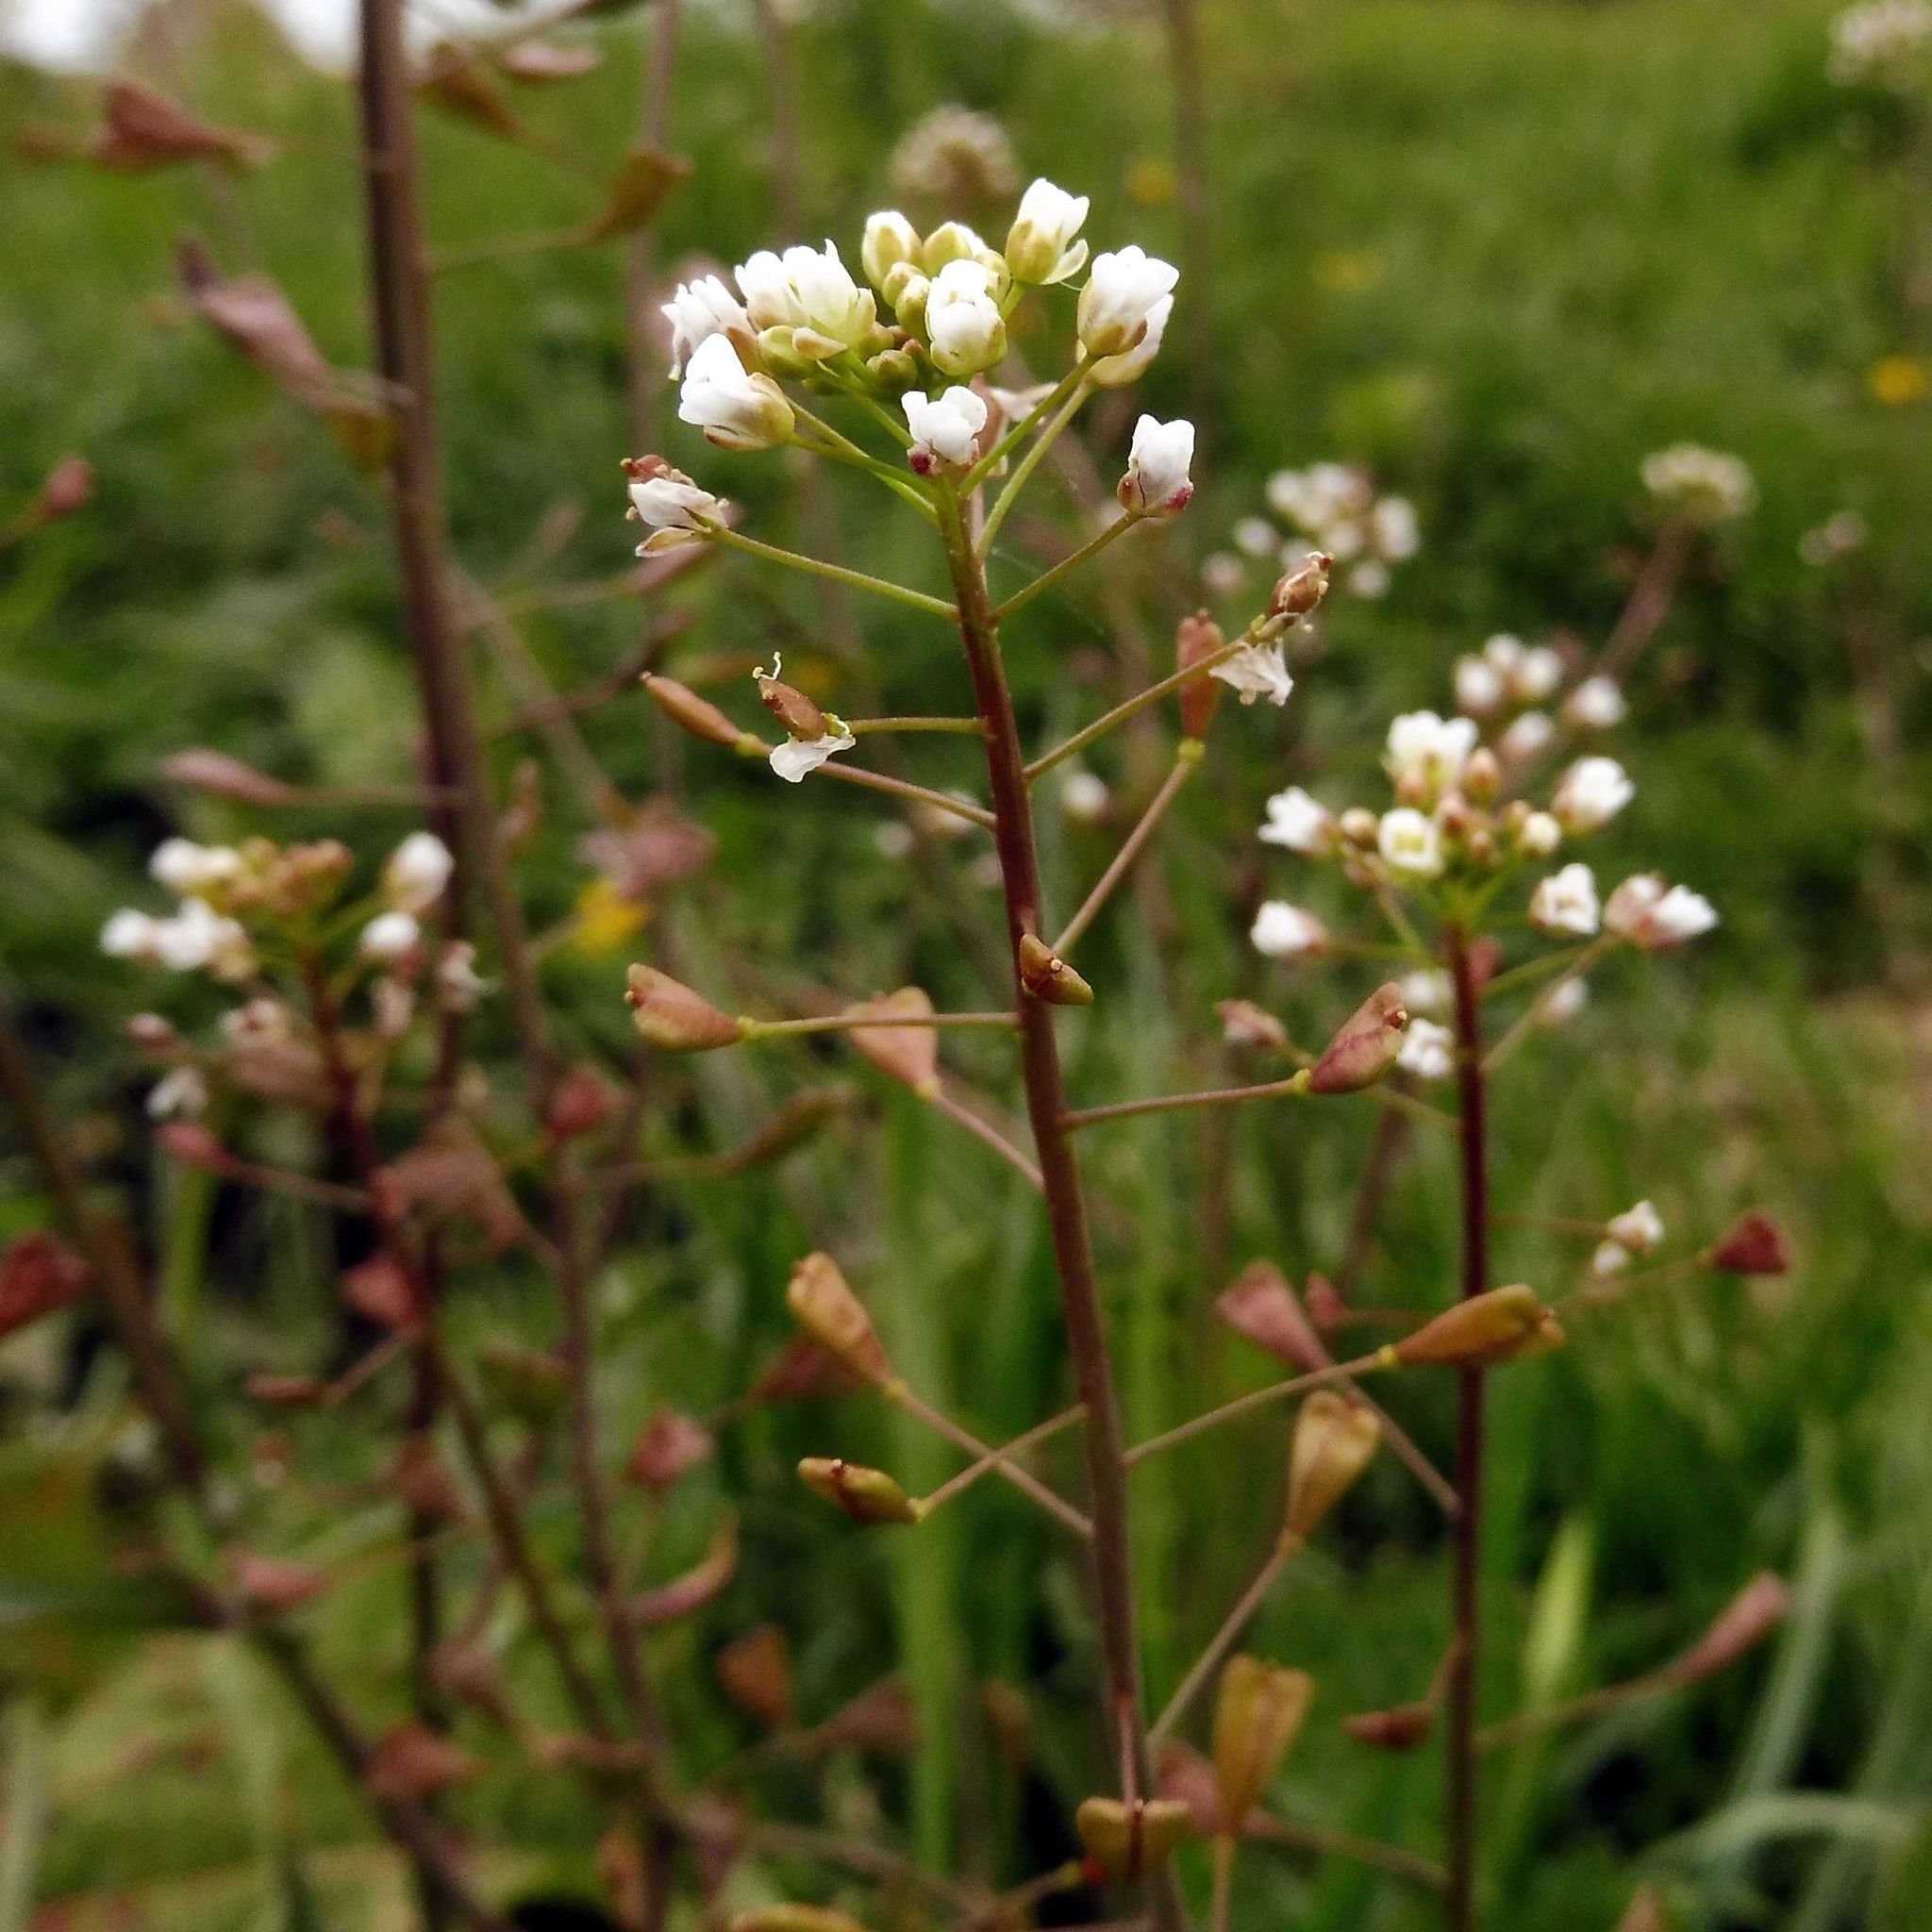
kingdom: Plantae
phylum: Tracheophyta
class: Magnoliopsida
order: Brassicales
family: Brassicaceae
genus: Capsella
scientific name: Capsella bursa-pastoris
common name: Shepherd's purse
